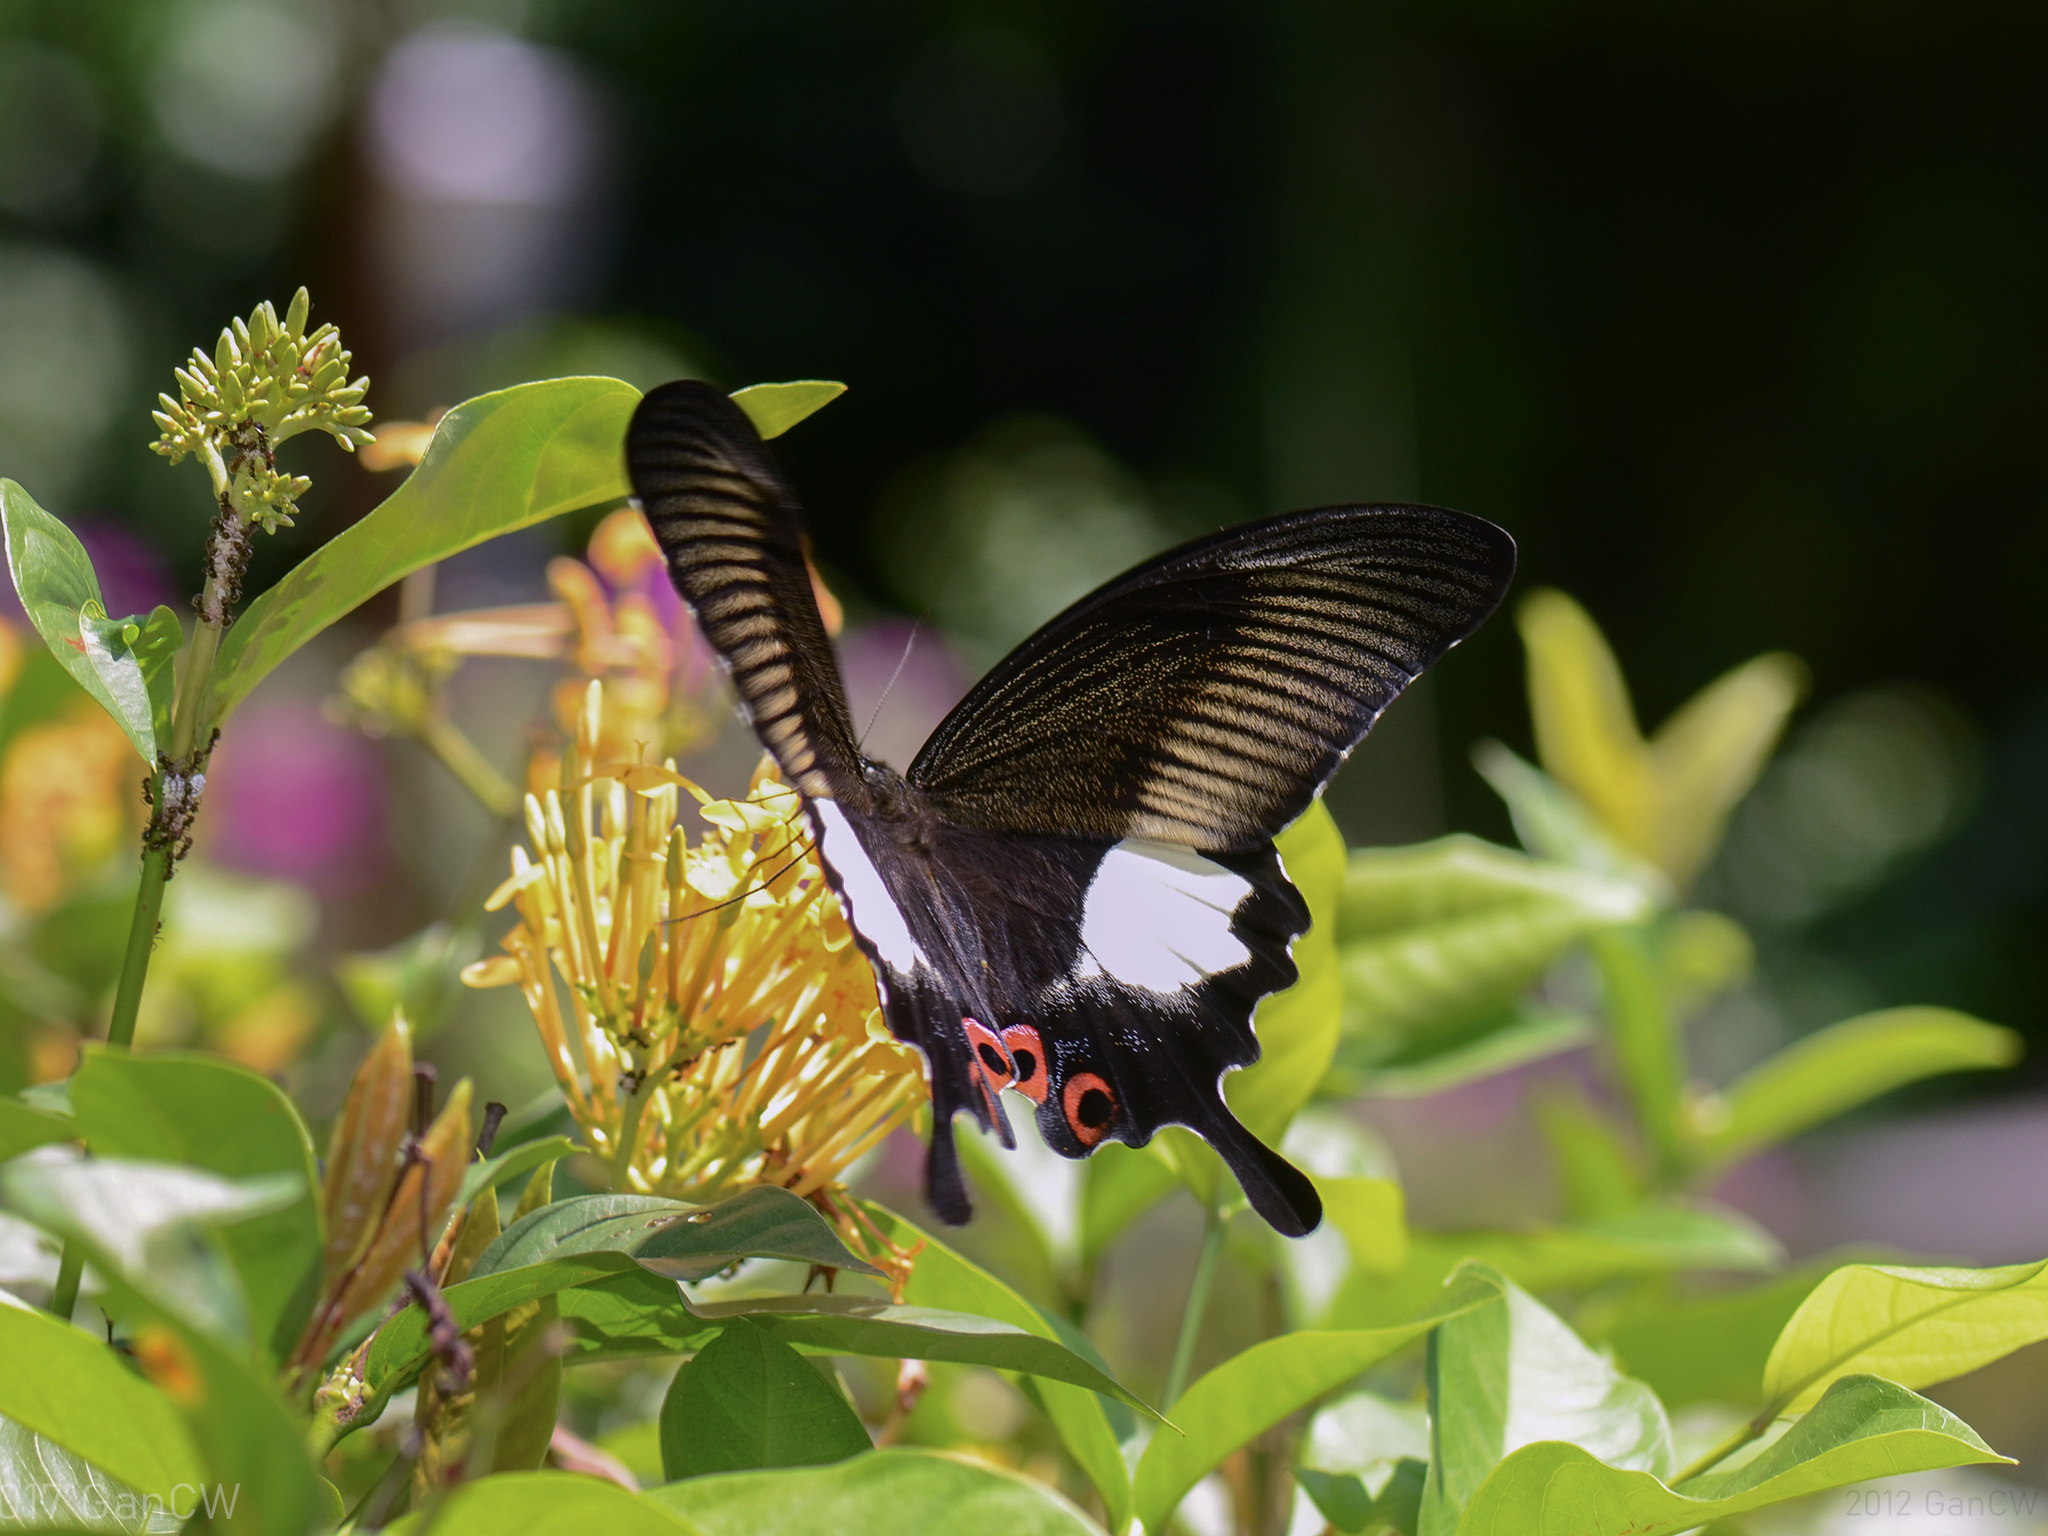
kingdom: Animalia
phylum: Arthropoda
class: Insecta
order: Lepidoptera
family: Papilionidae
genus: Papilio
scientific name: Papilio iswara
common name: Great helen swallowtail
